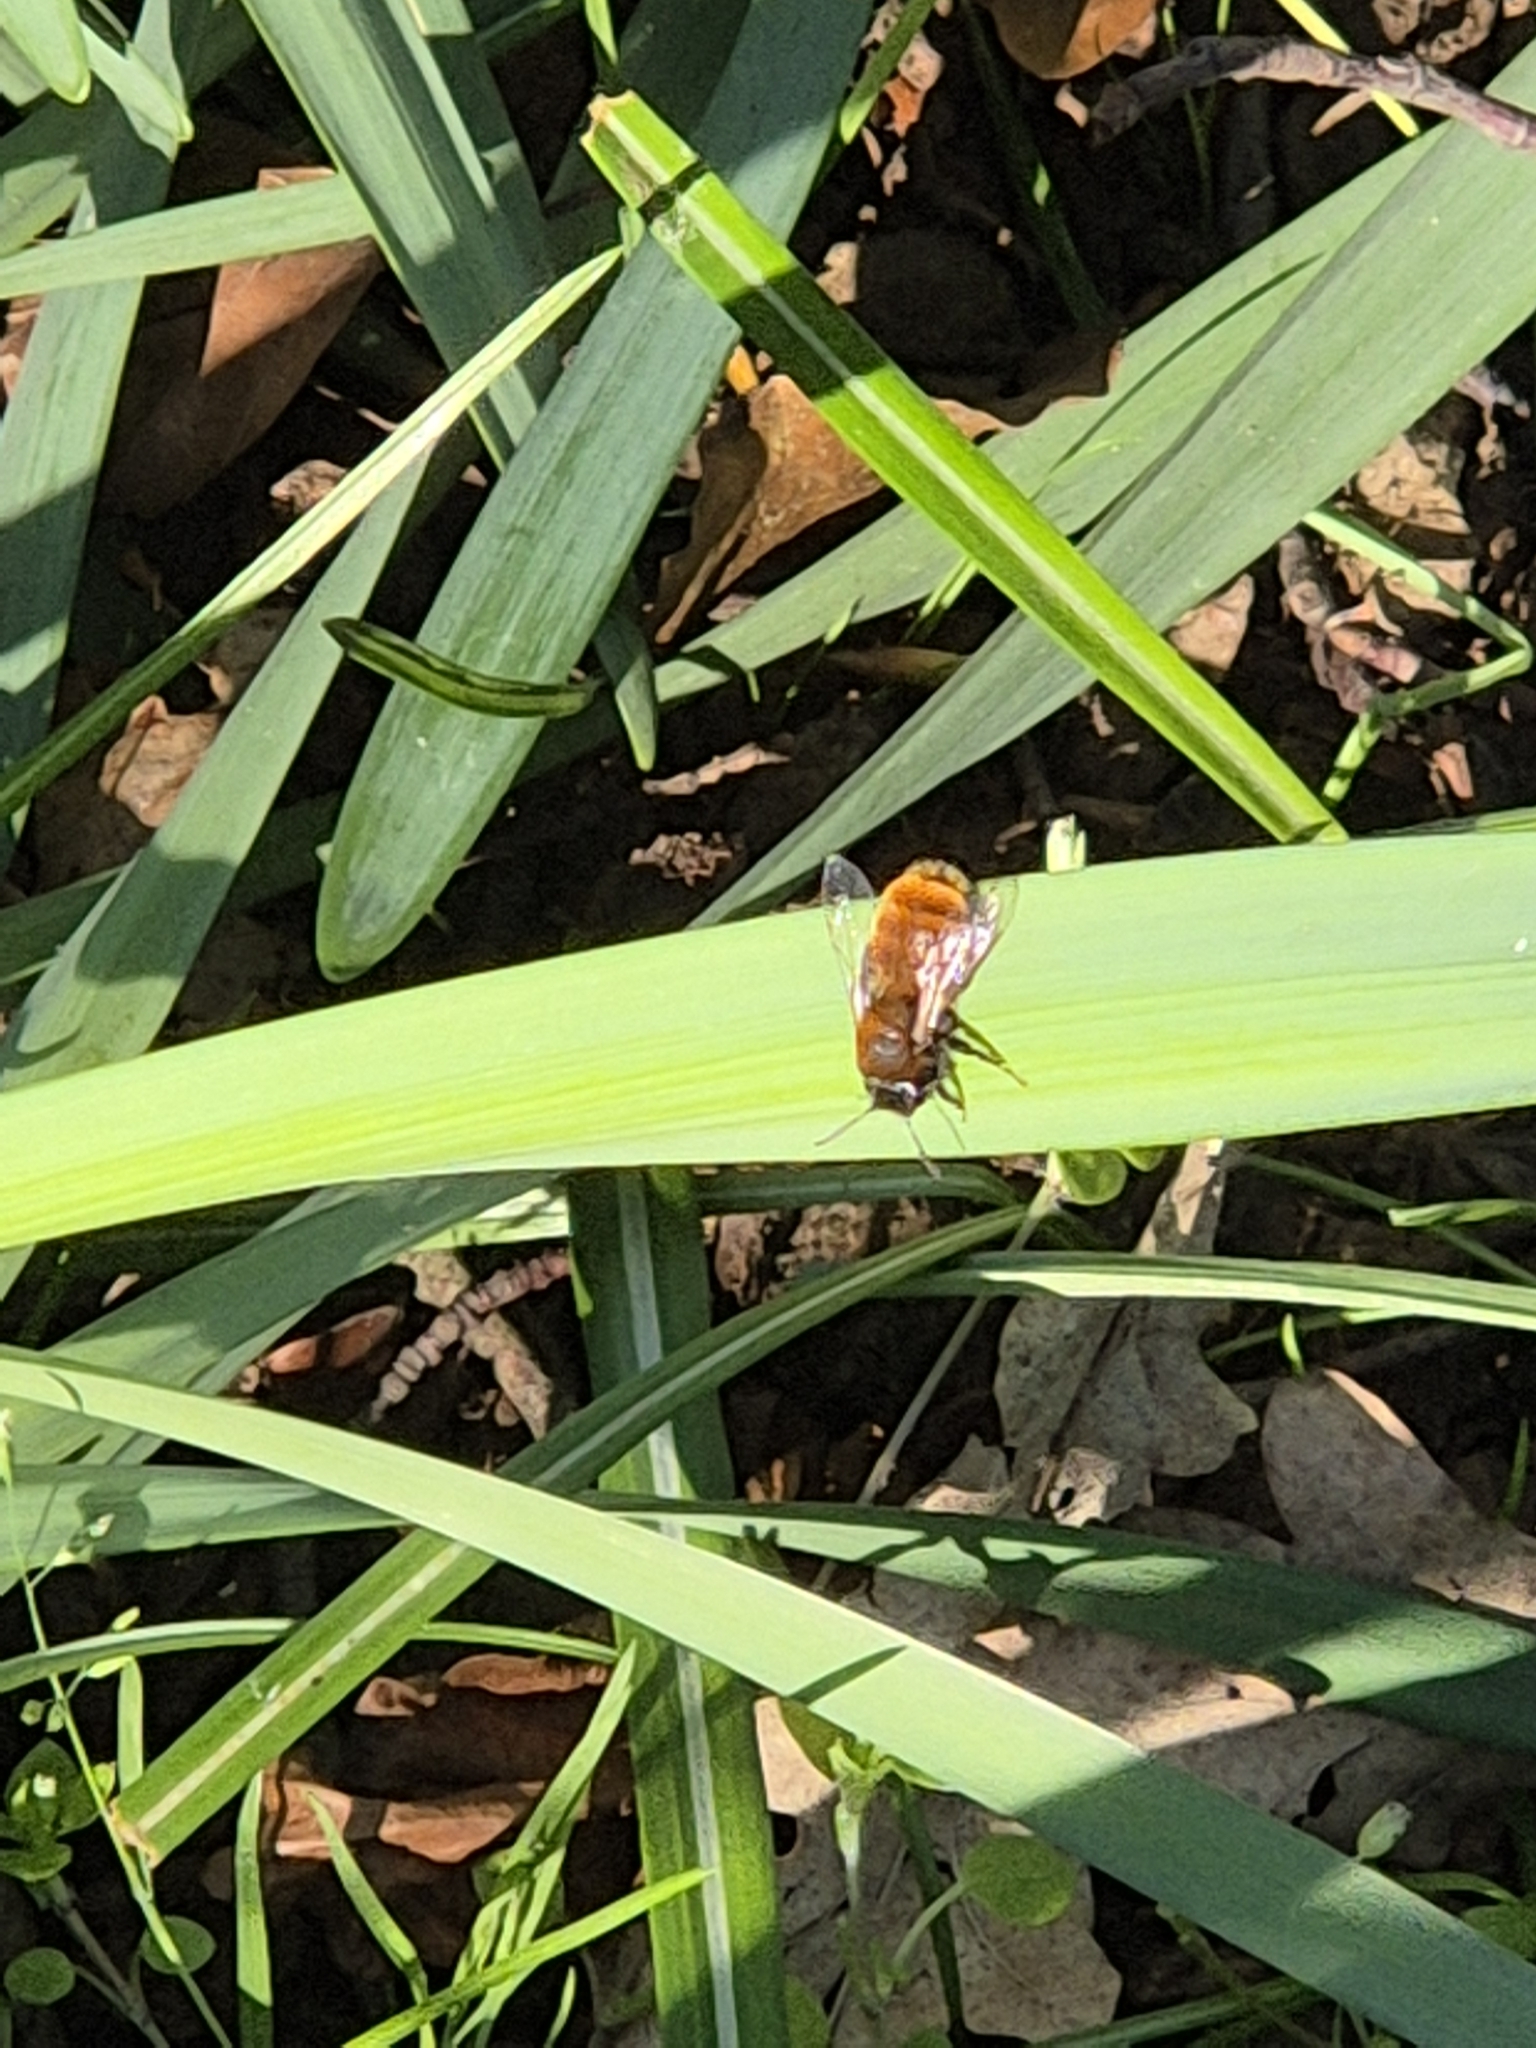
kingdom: Animalia
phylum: Arthropoda
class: Insecta
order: Hymenoptera
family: Andrenidae
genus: Andrena
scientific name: Andrena fulva
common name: Tawny mining bee
